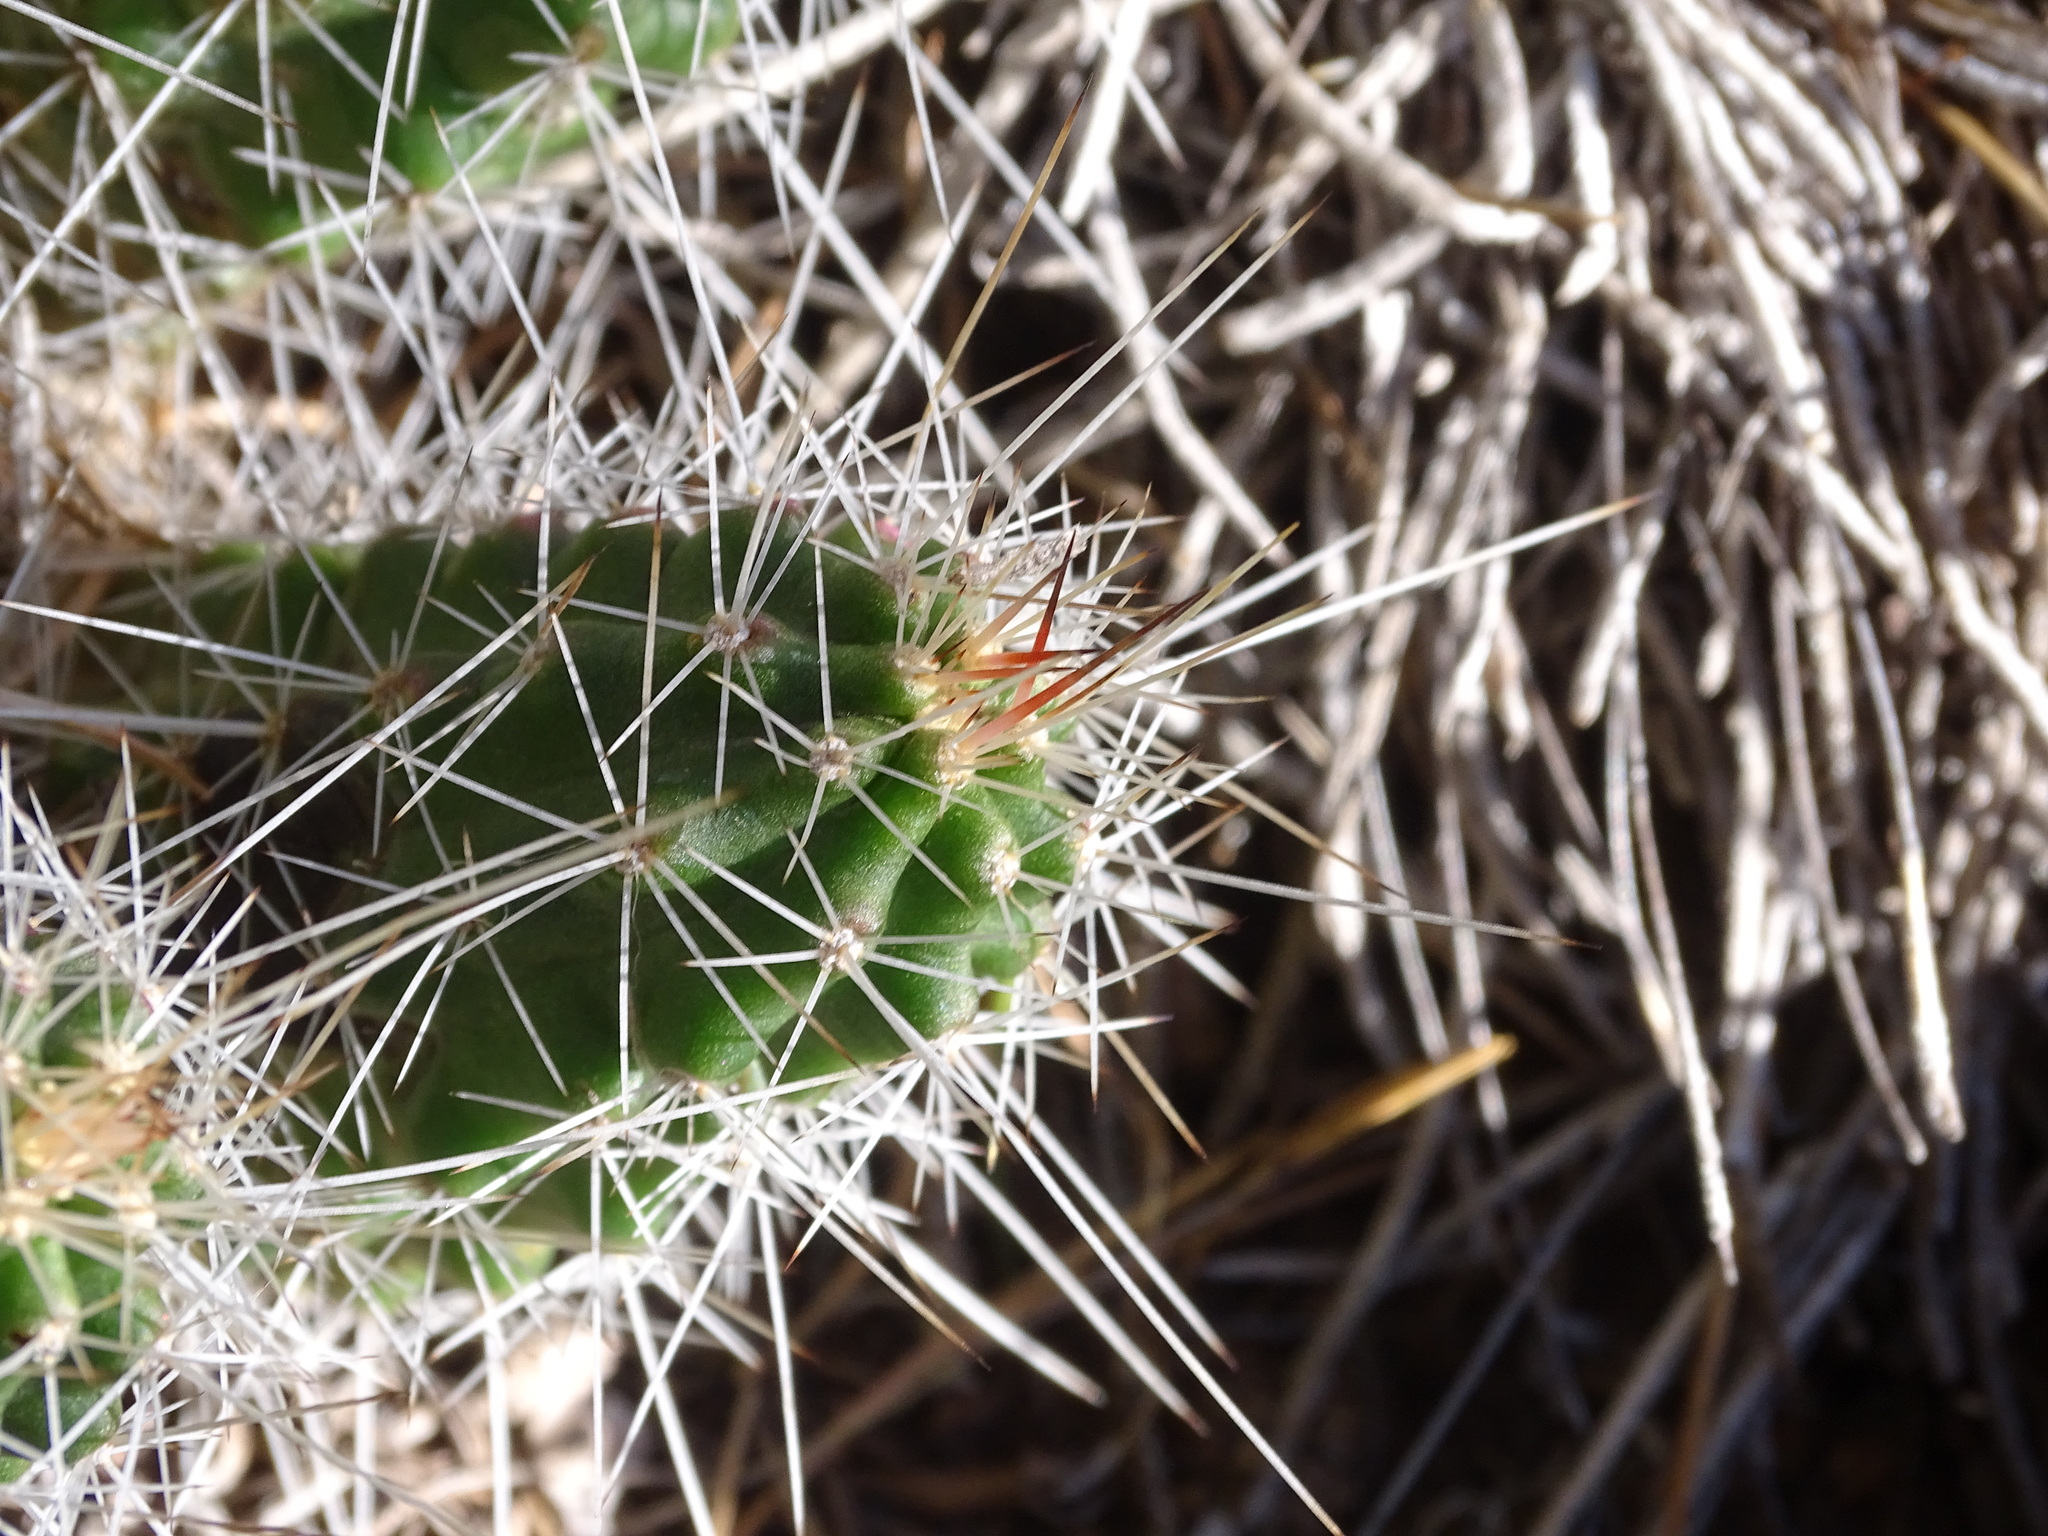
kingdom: Plantae
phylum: Tracheophyta
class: Magnoliopsida
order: Caryophyllales
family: Cactaceae
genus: Echinocereus
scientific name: Echinocereus parkeri
